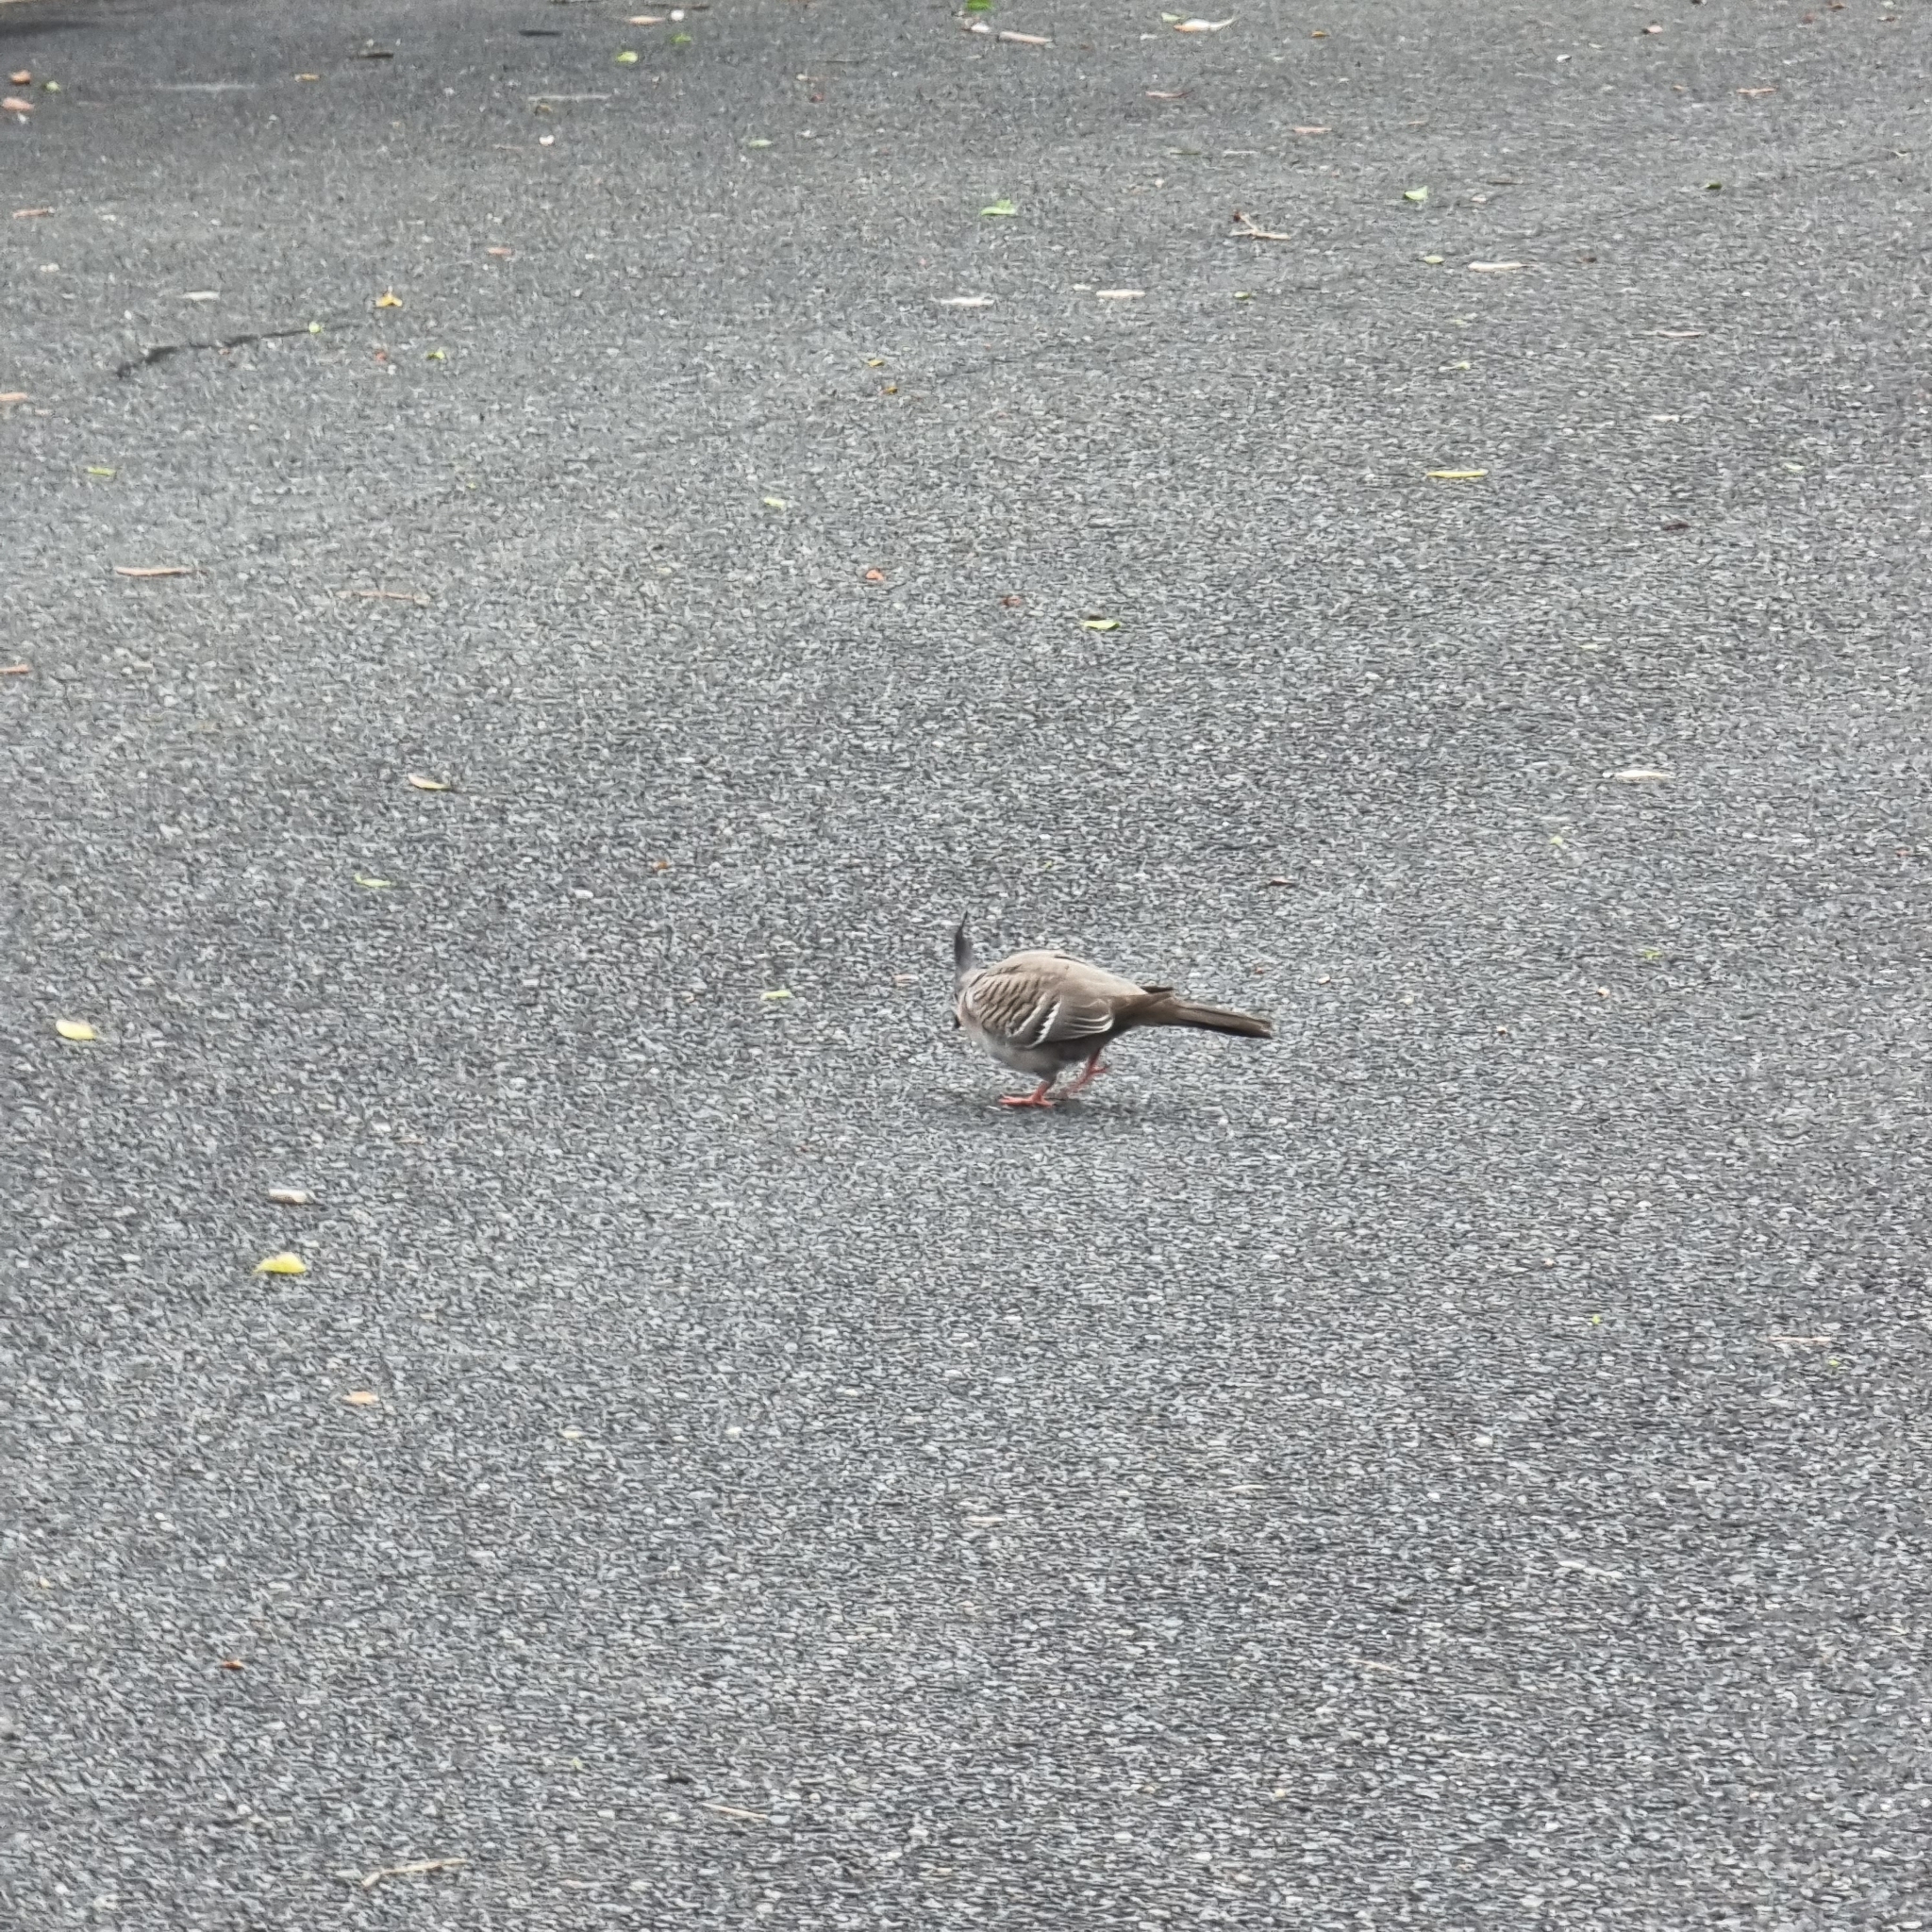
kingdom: Animalia
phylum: Chordata
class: Aves
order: Columbiformes
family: Columbidae
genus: Ocyphaps
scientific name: Ocyphaps lophotes
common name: Crested pigeon
